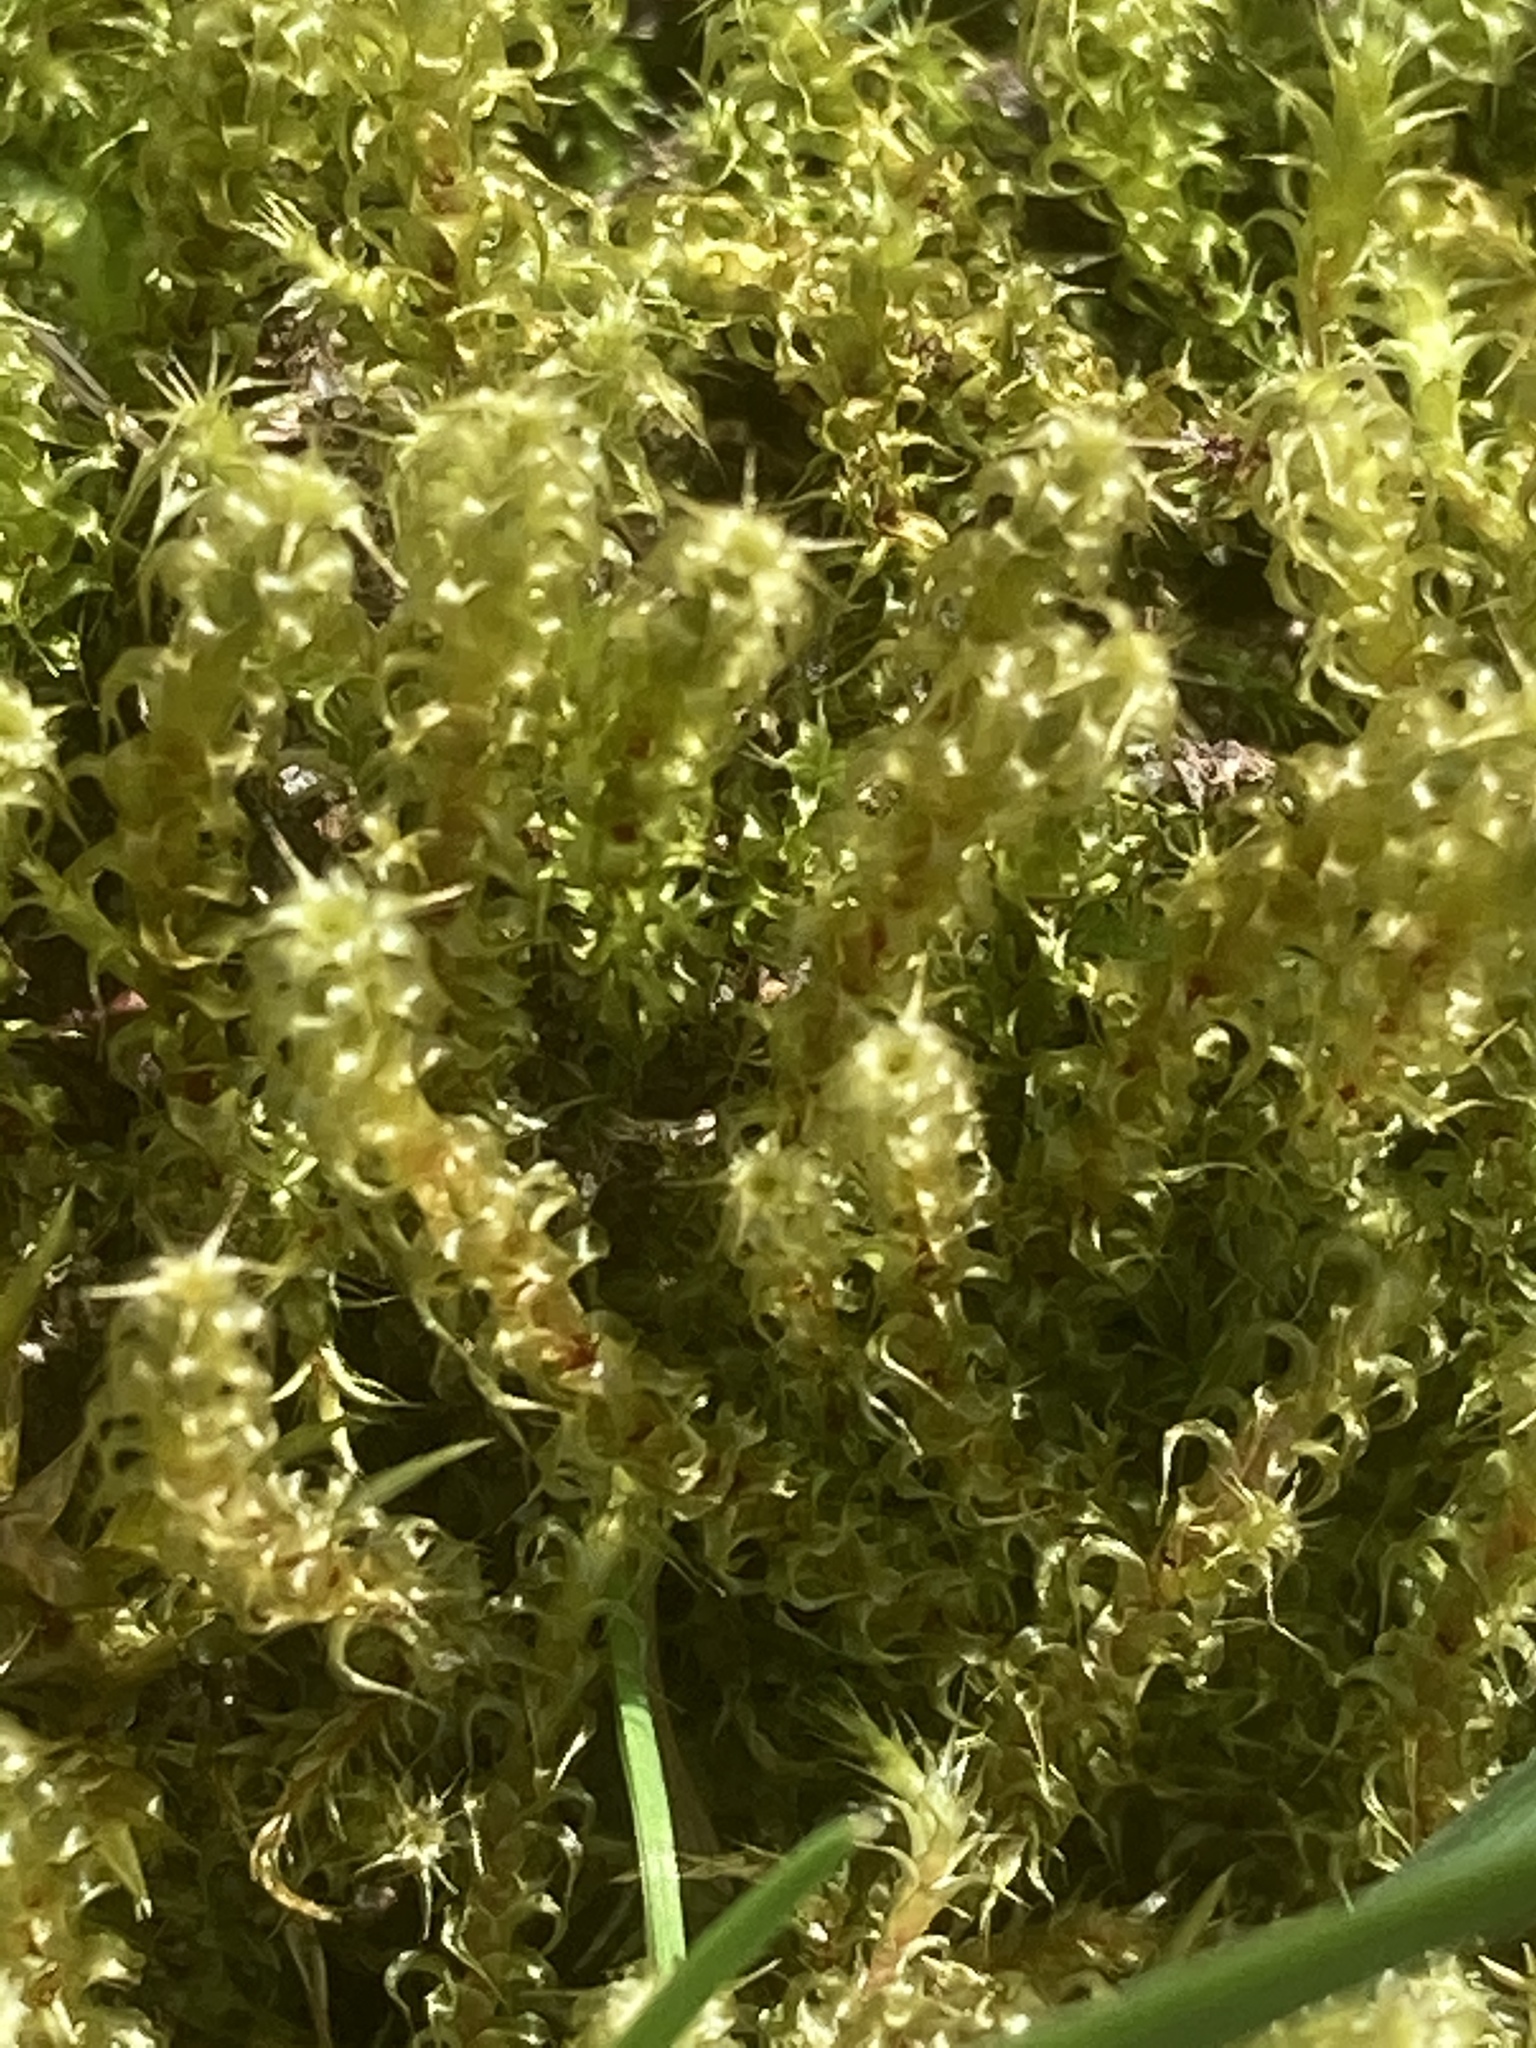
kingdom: Plantae
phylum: Bryophyta
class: Bryopsida
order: Hypnales
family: Hylocomiaceae
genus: Rhytidiadelphus
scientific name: Rhytidiadelphus squarrosus
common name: Springy turf-moss
